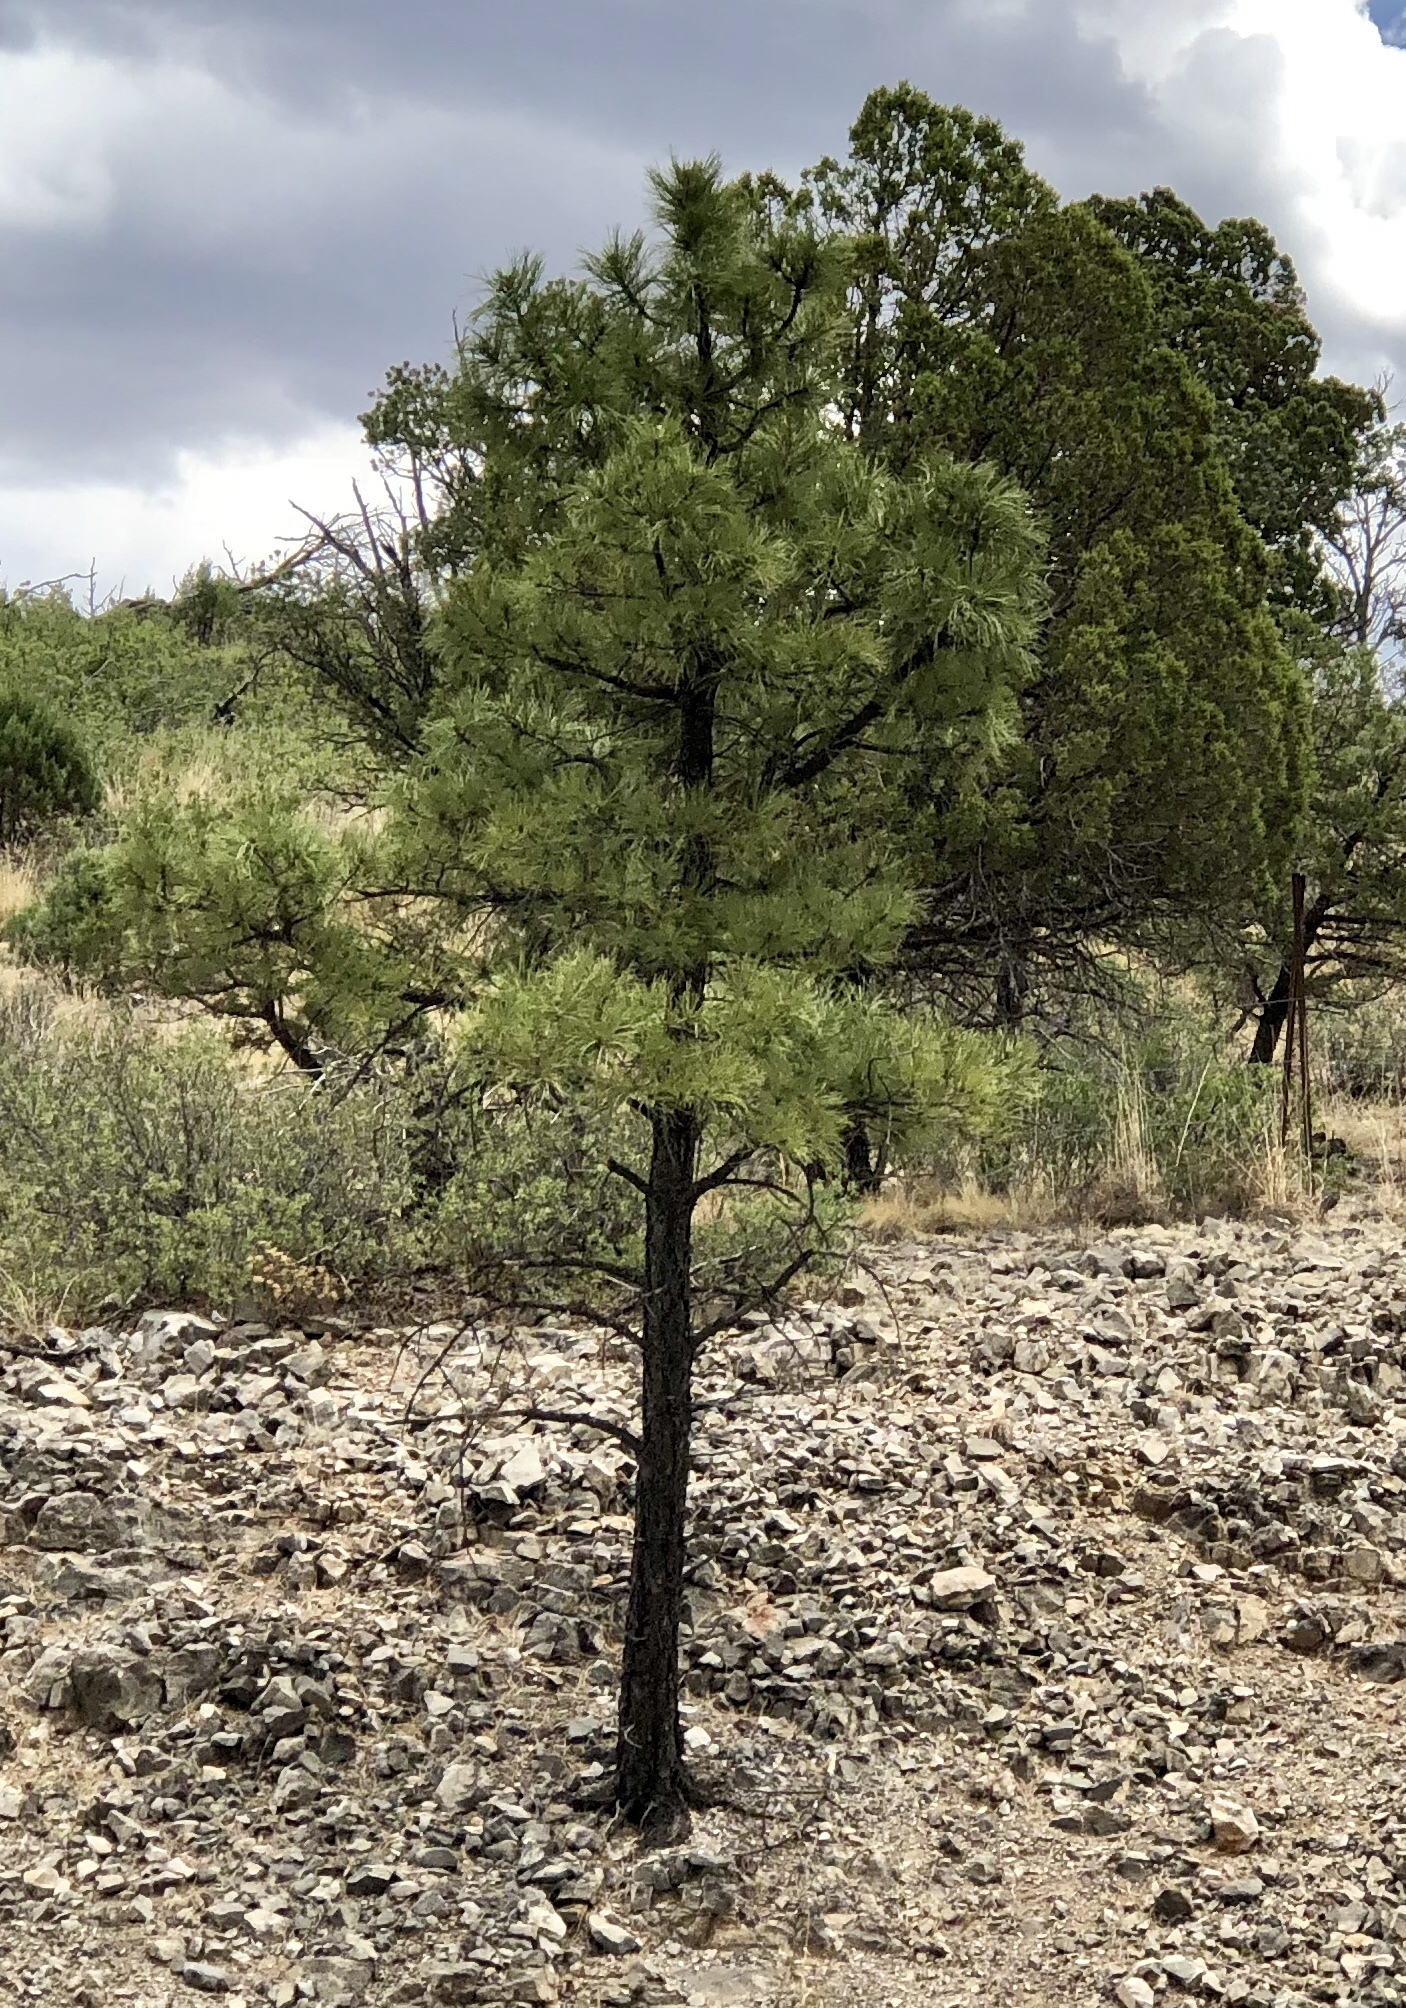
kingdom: Plantae
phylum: Tracheophyta
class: Pinopsida
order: Pinales
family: Pinaceae
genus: Pinus
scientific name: Pinus ponderosa
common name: Western yellow-pine
